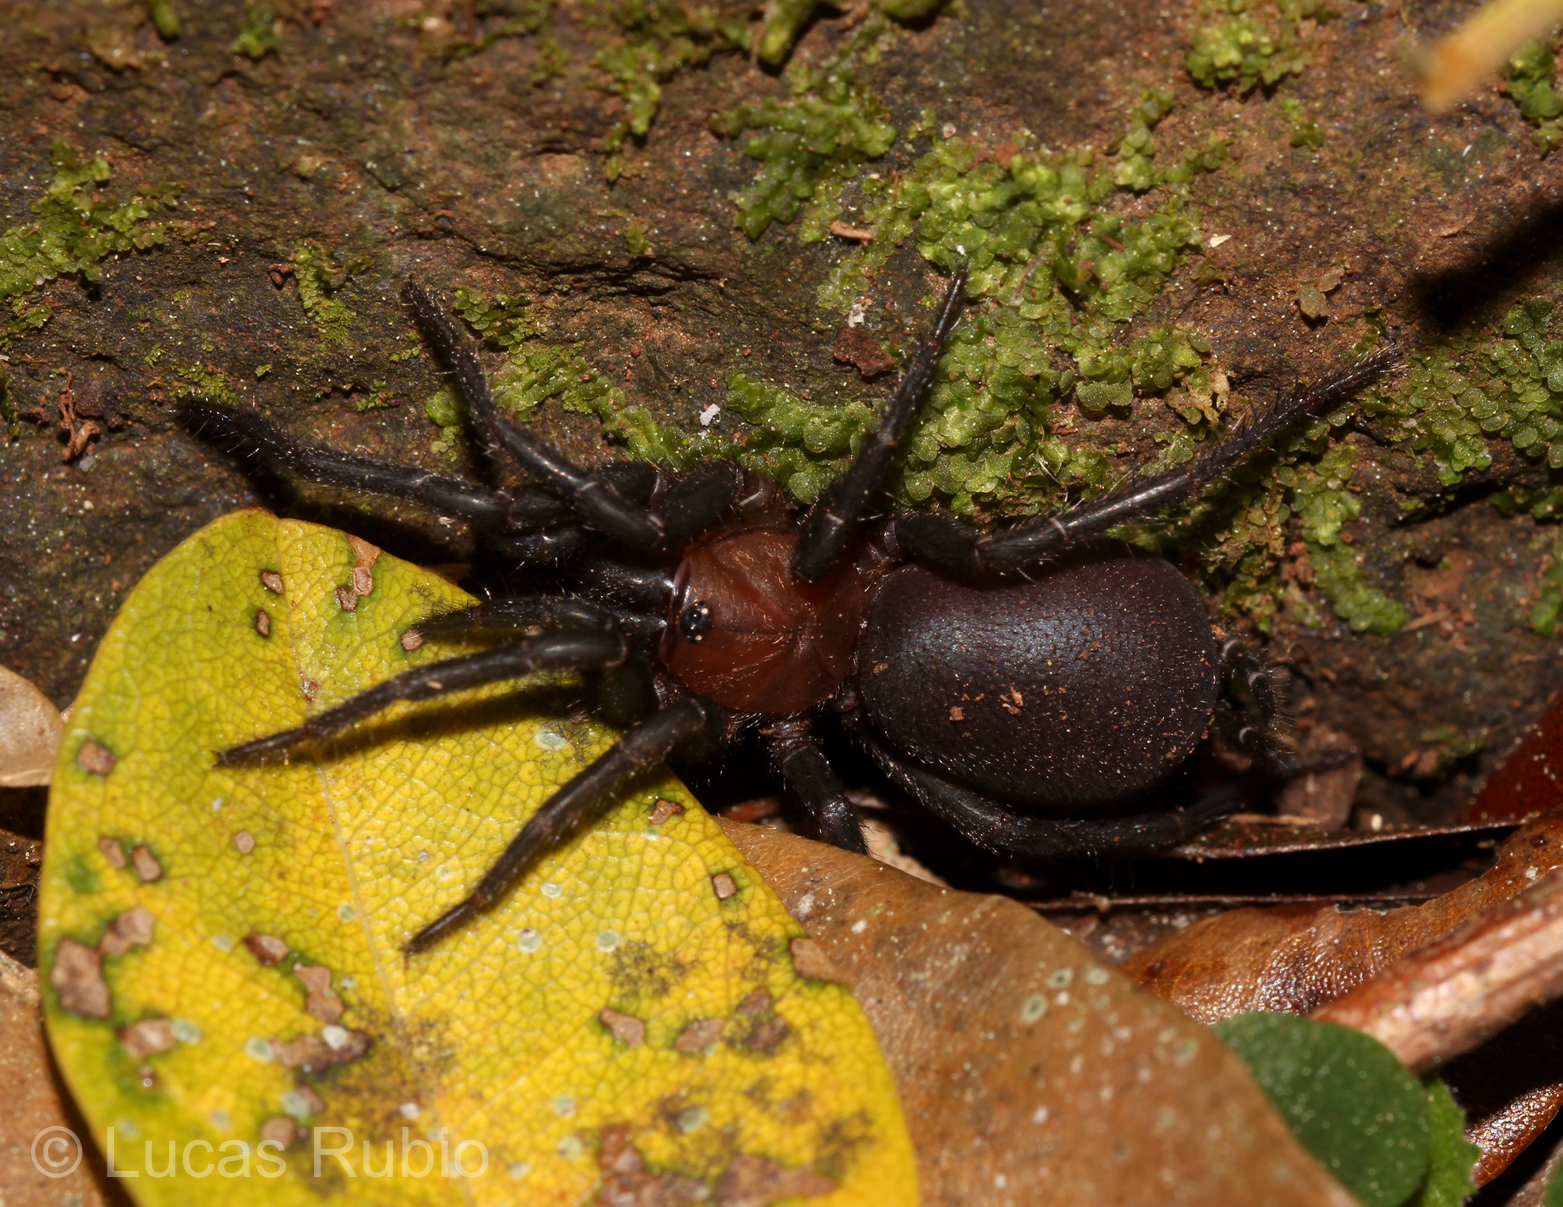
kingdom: Animalia
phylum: Arthropoda
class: Arachnida
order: Araneae
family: Dipluridae
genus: Diplura
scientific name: Diplura paraguayensis
